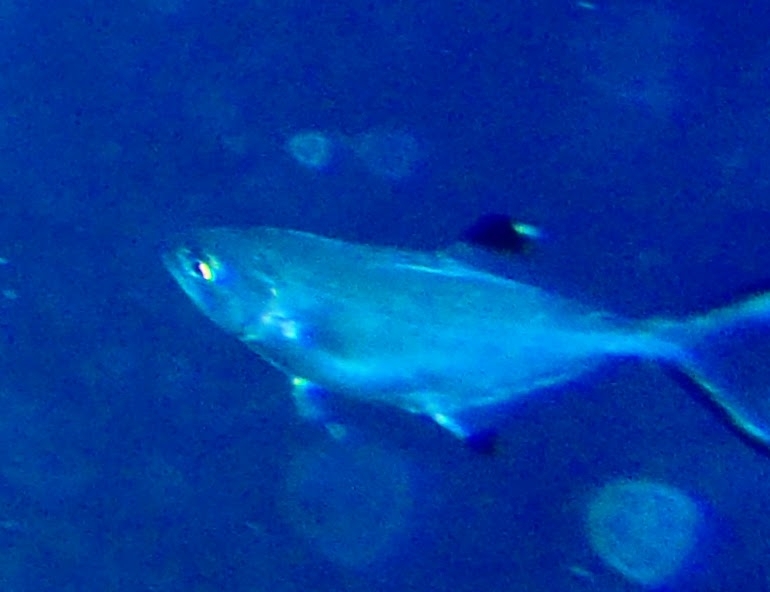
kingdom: Animalia
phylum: Chordata
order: Perciformes
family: Carangidae
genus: Trachinotus
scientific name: Trachinotus ovatus
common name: Pompano
